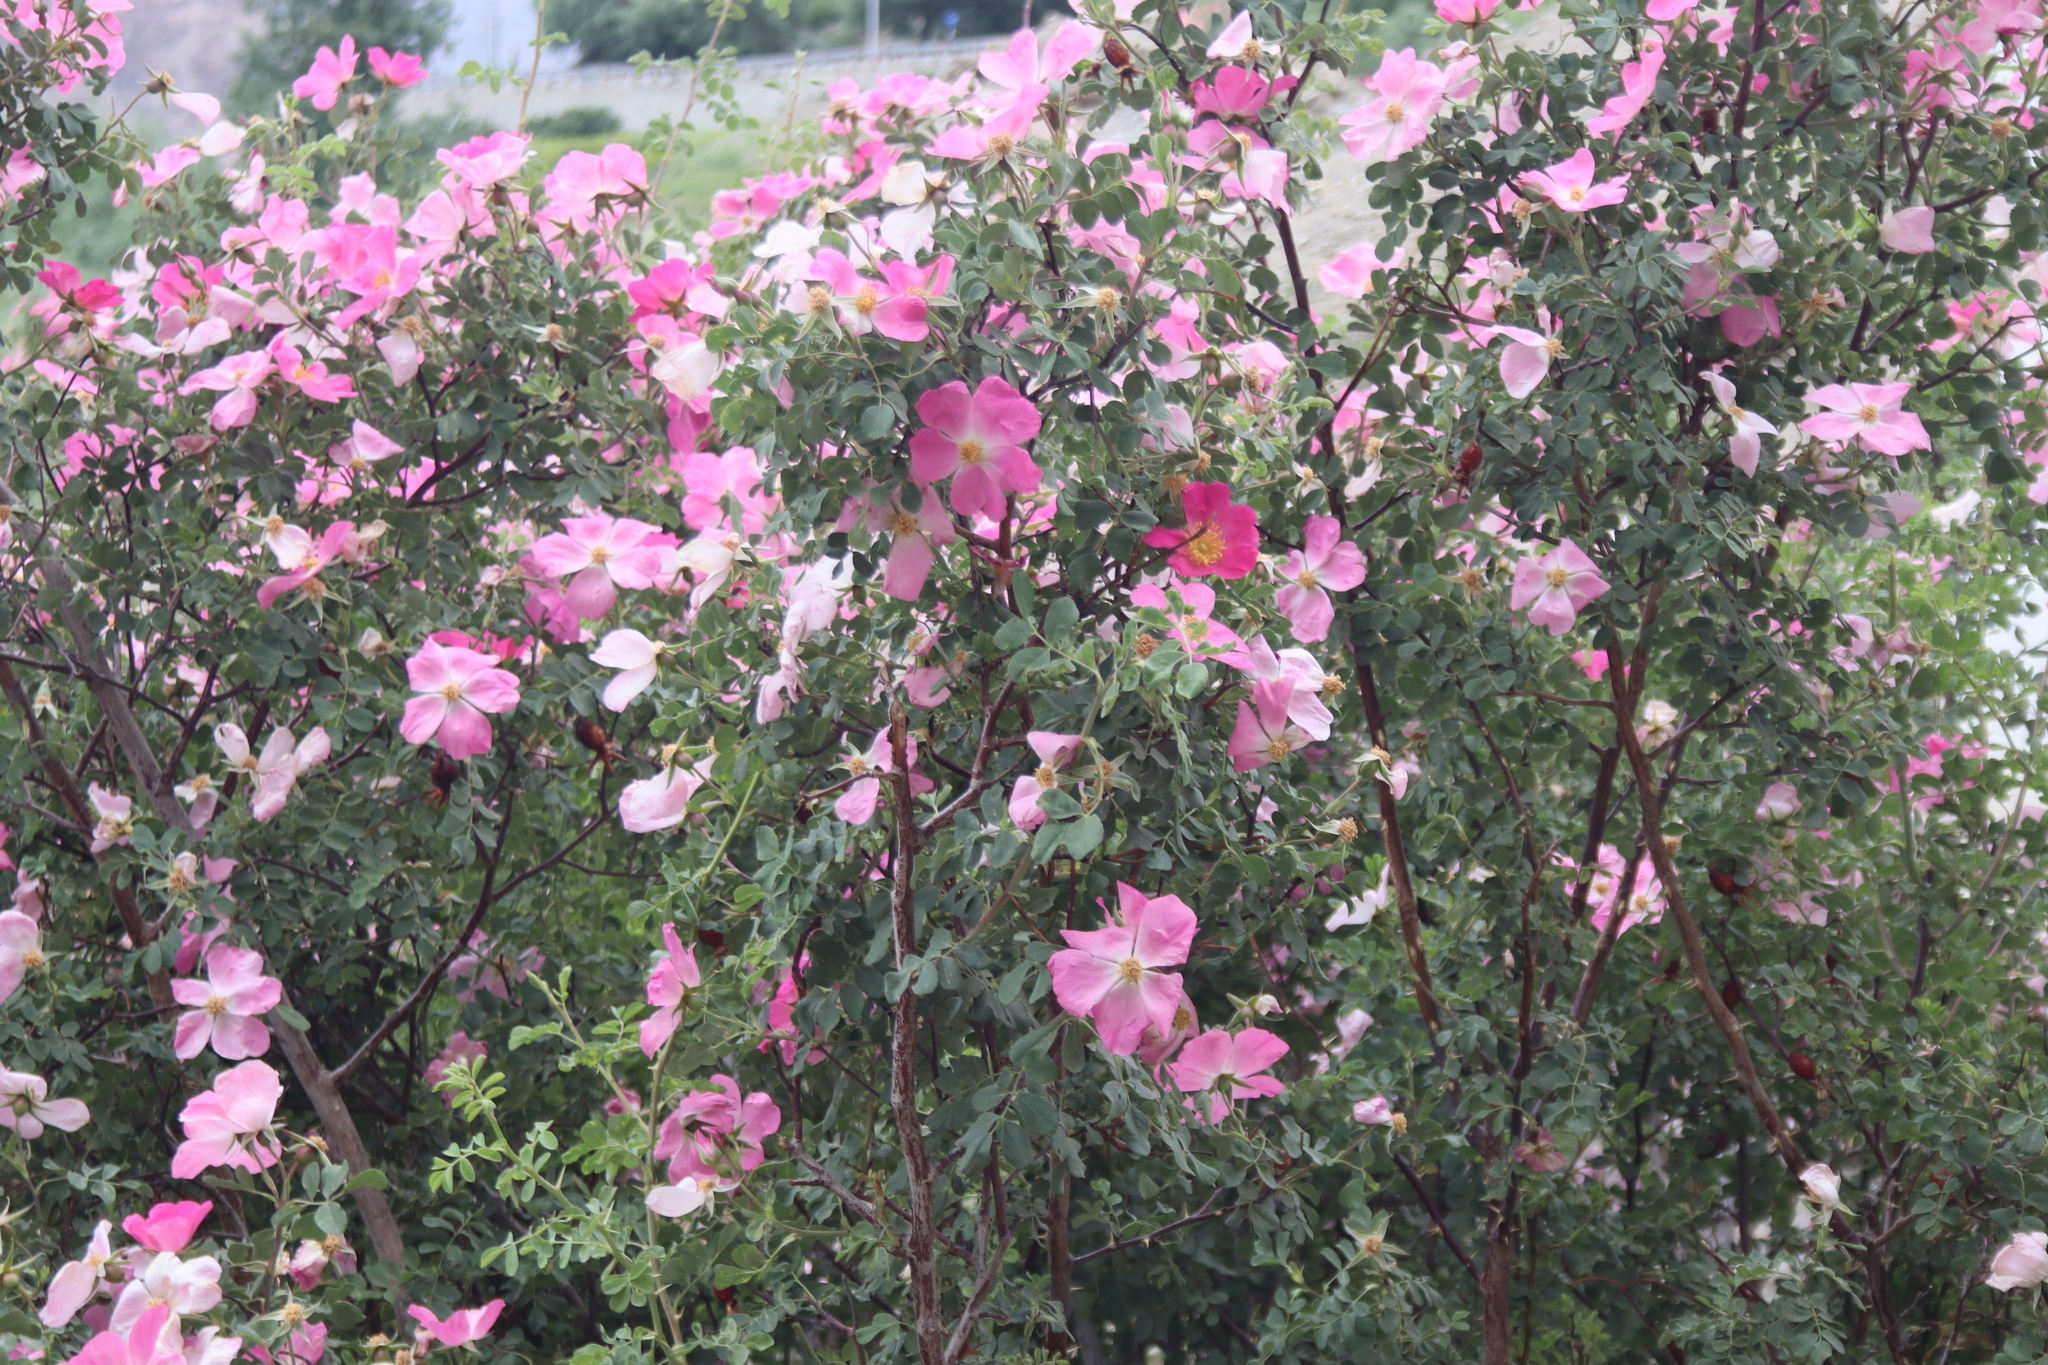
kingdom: Plantae
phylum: Tracheophyta
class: Magnoliopsida
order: Rosales
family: Rosaceae
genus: Rosa
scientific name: Rosa webbiana
